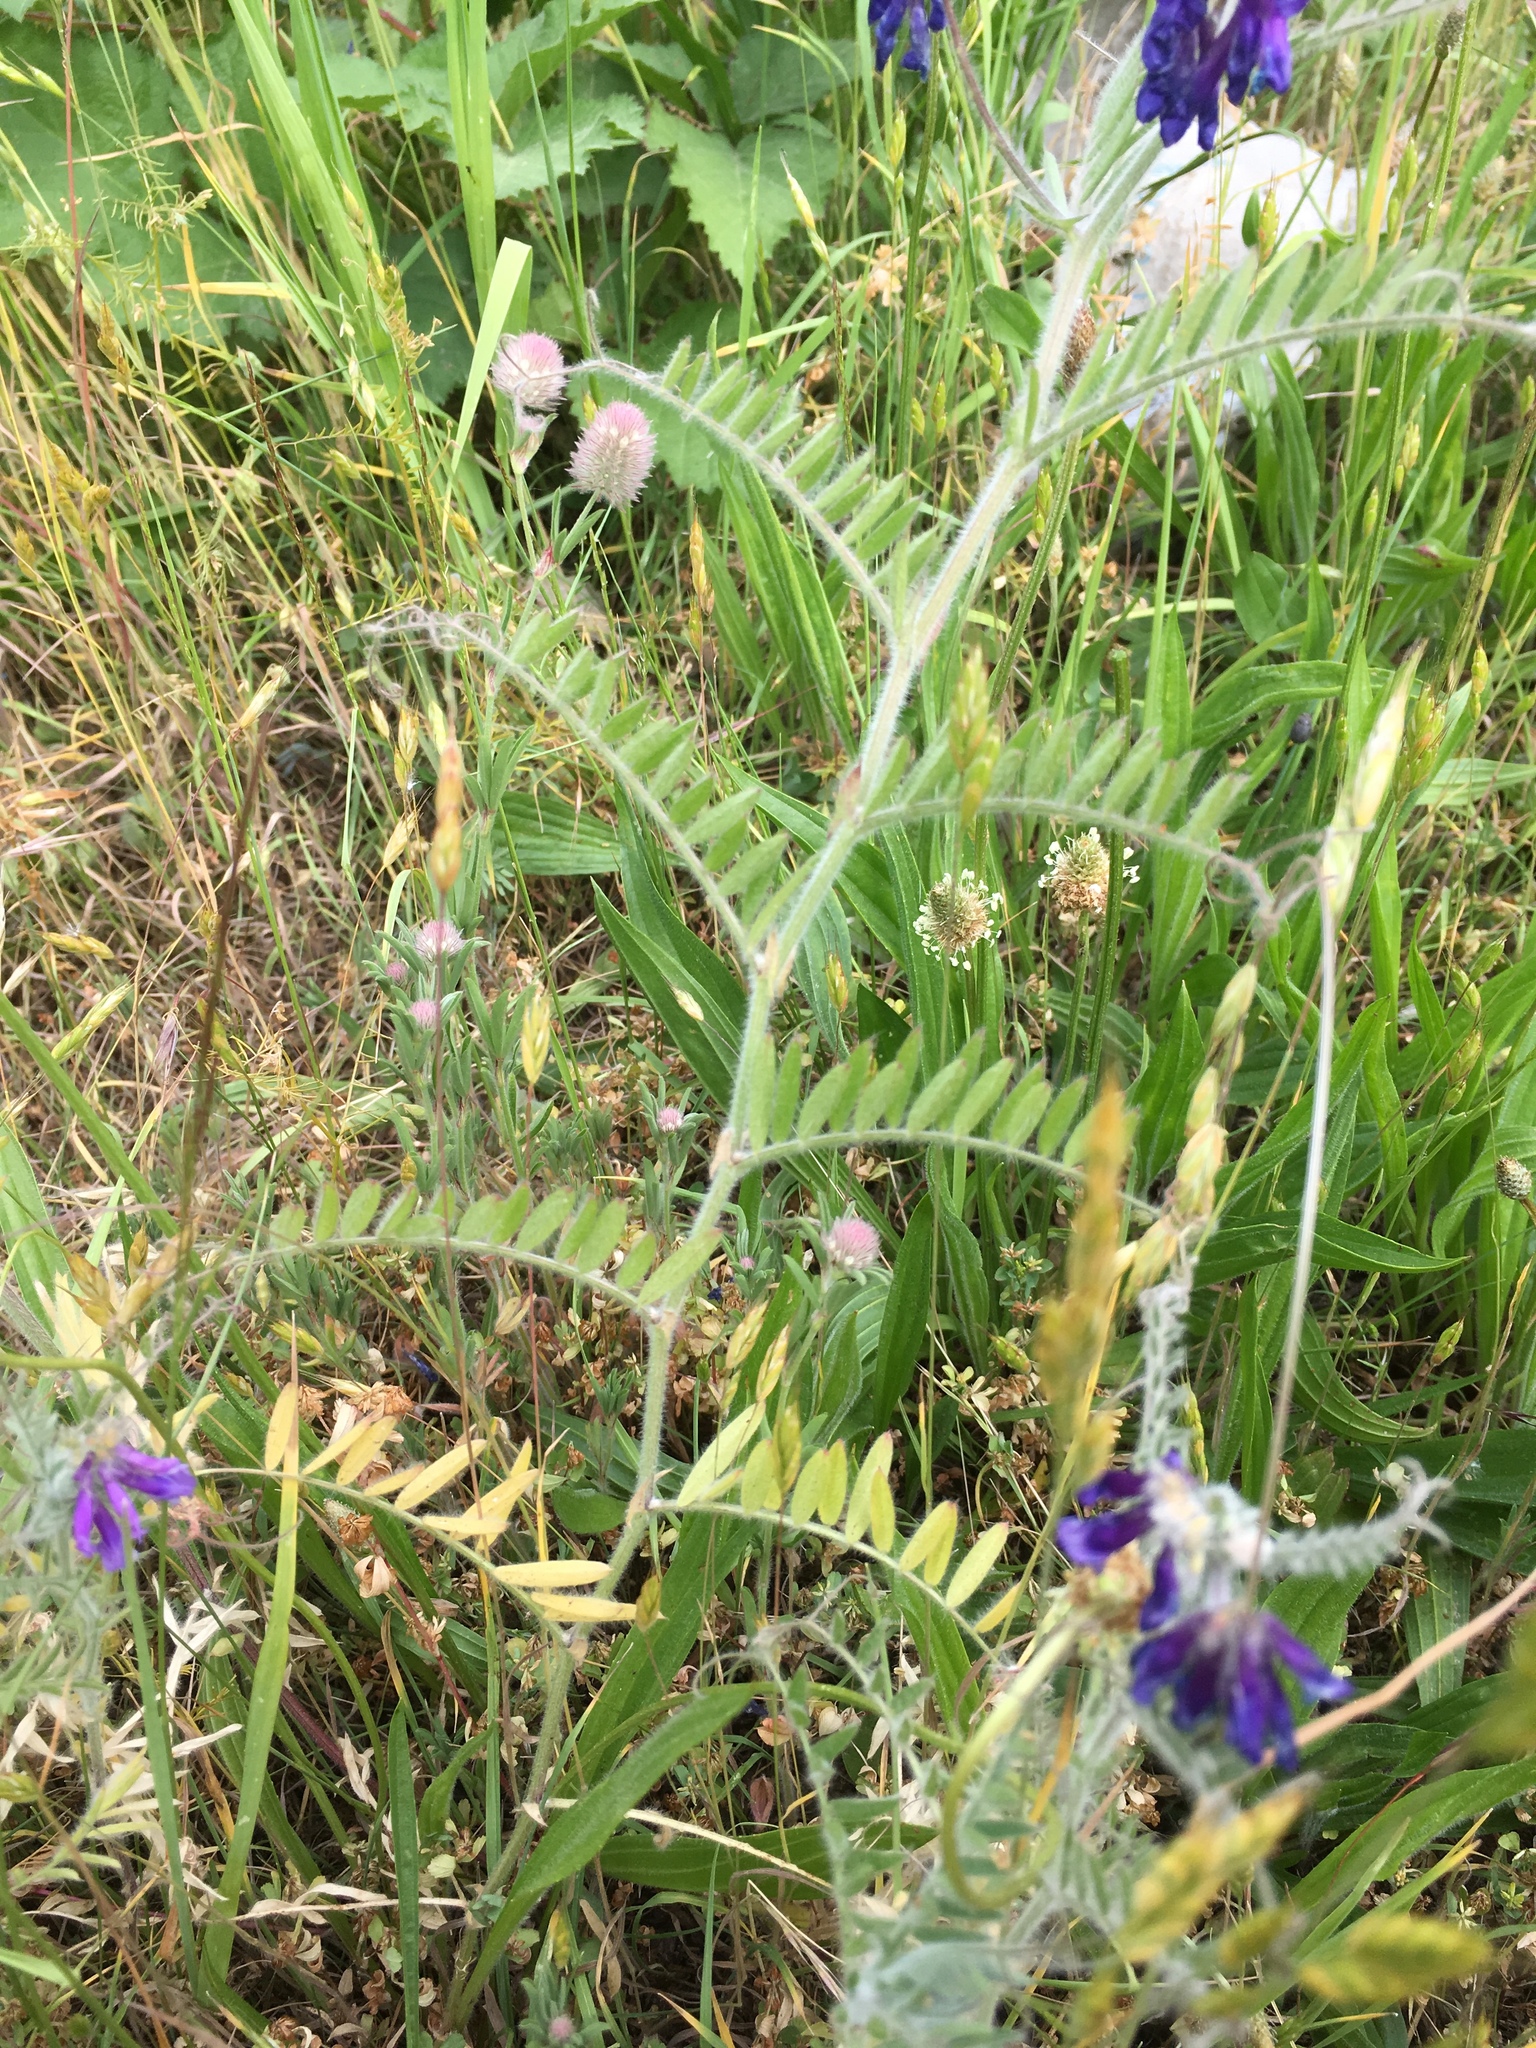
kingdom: Plantae
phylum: Tracheophyta
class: Magnoliopsida
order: Fabales
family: Fabaceae
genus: Vicia
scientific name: Vicia villosa
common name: Fodder vetch
